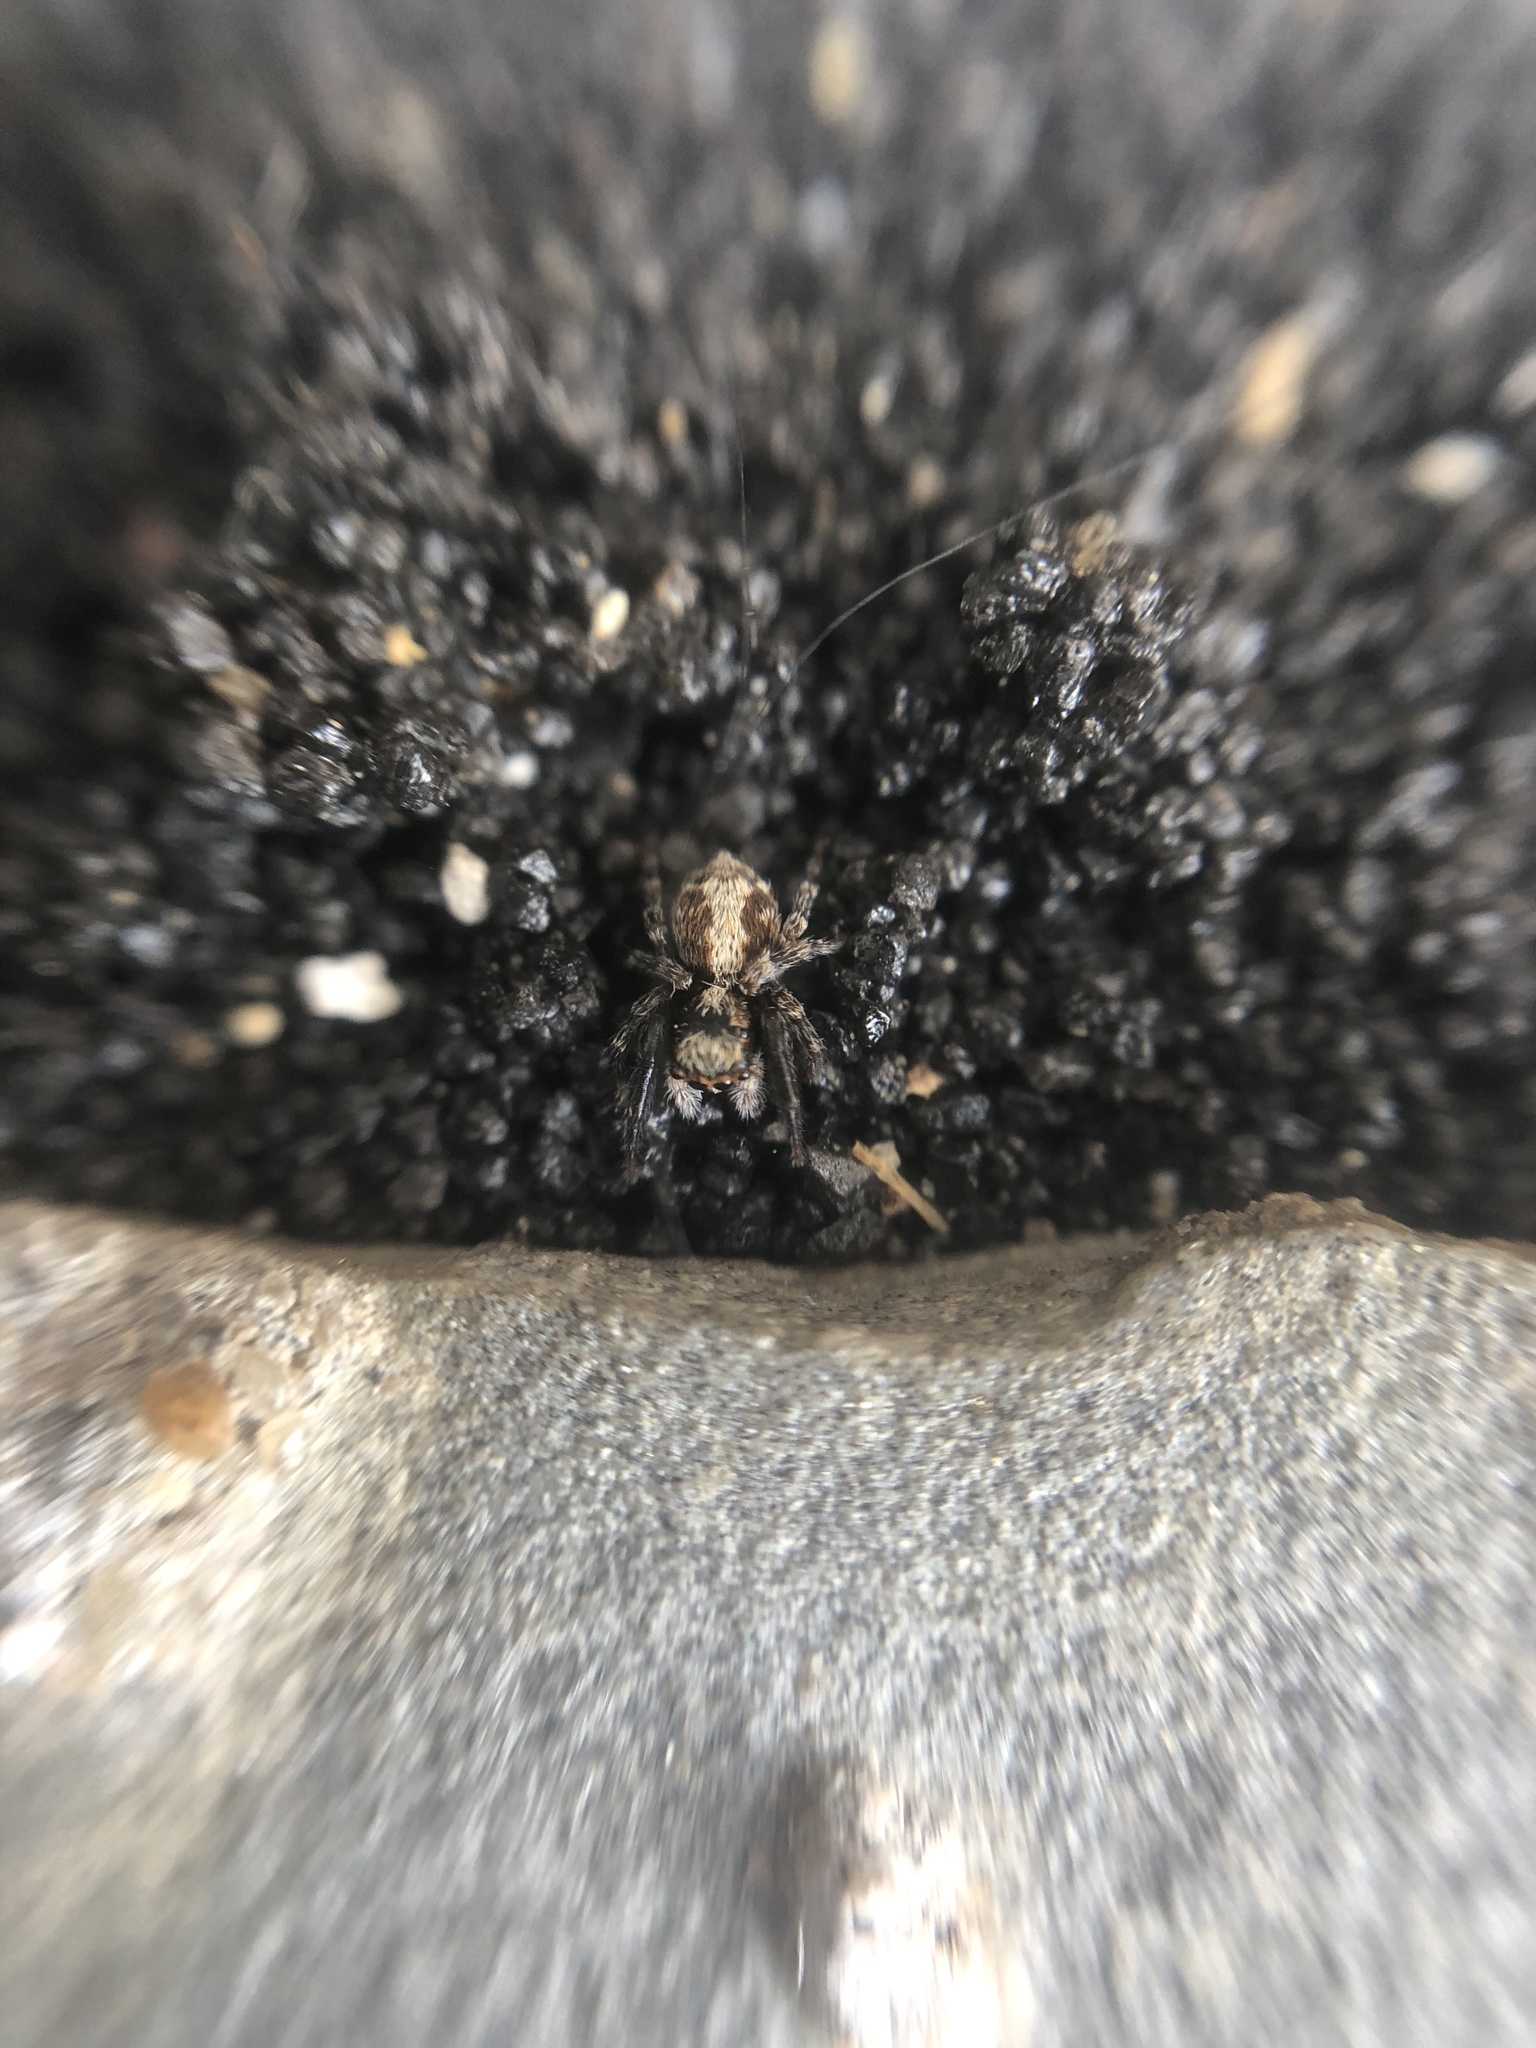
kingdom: Animalia
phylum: Arthropoda
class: Arachnida
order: Araneae
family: Salticidae
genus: Pseudeuophrys
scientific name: Pseudeuophrys lanigera
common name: Jumping spider
